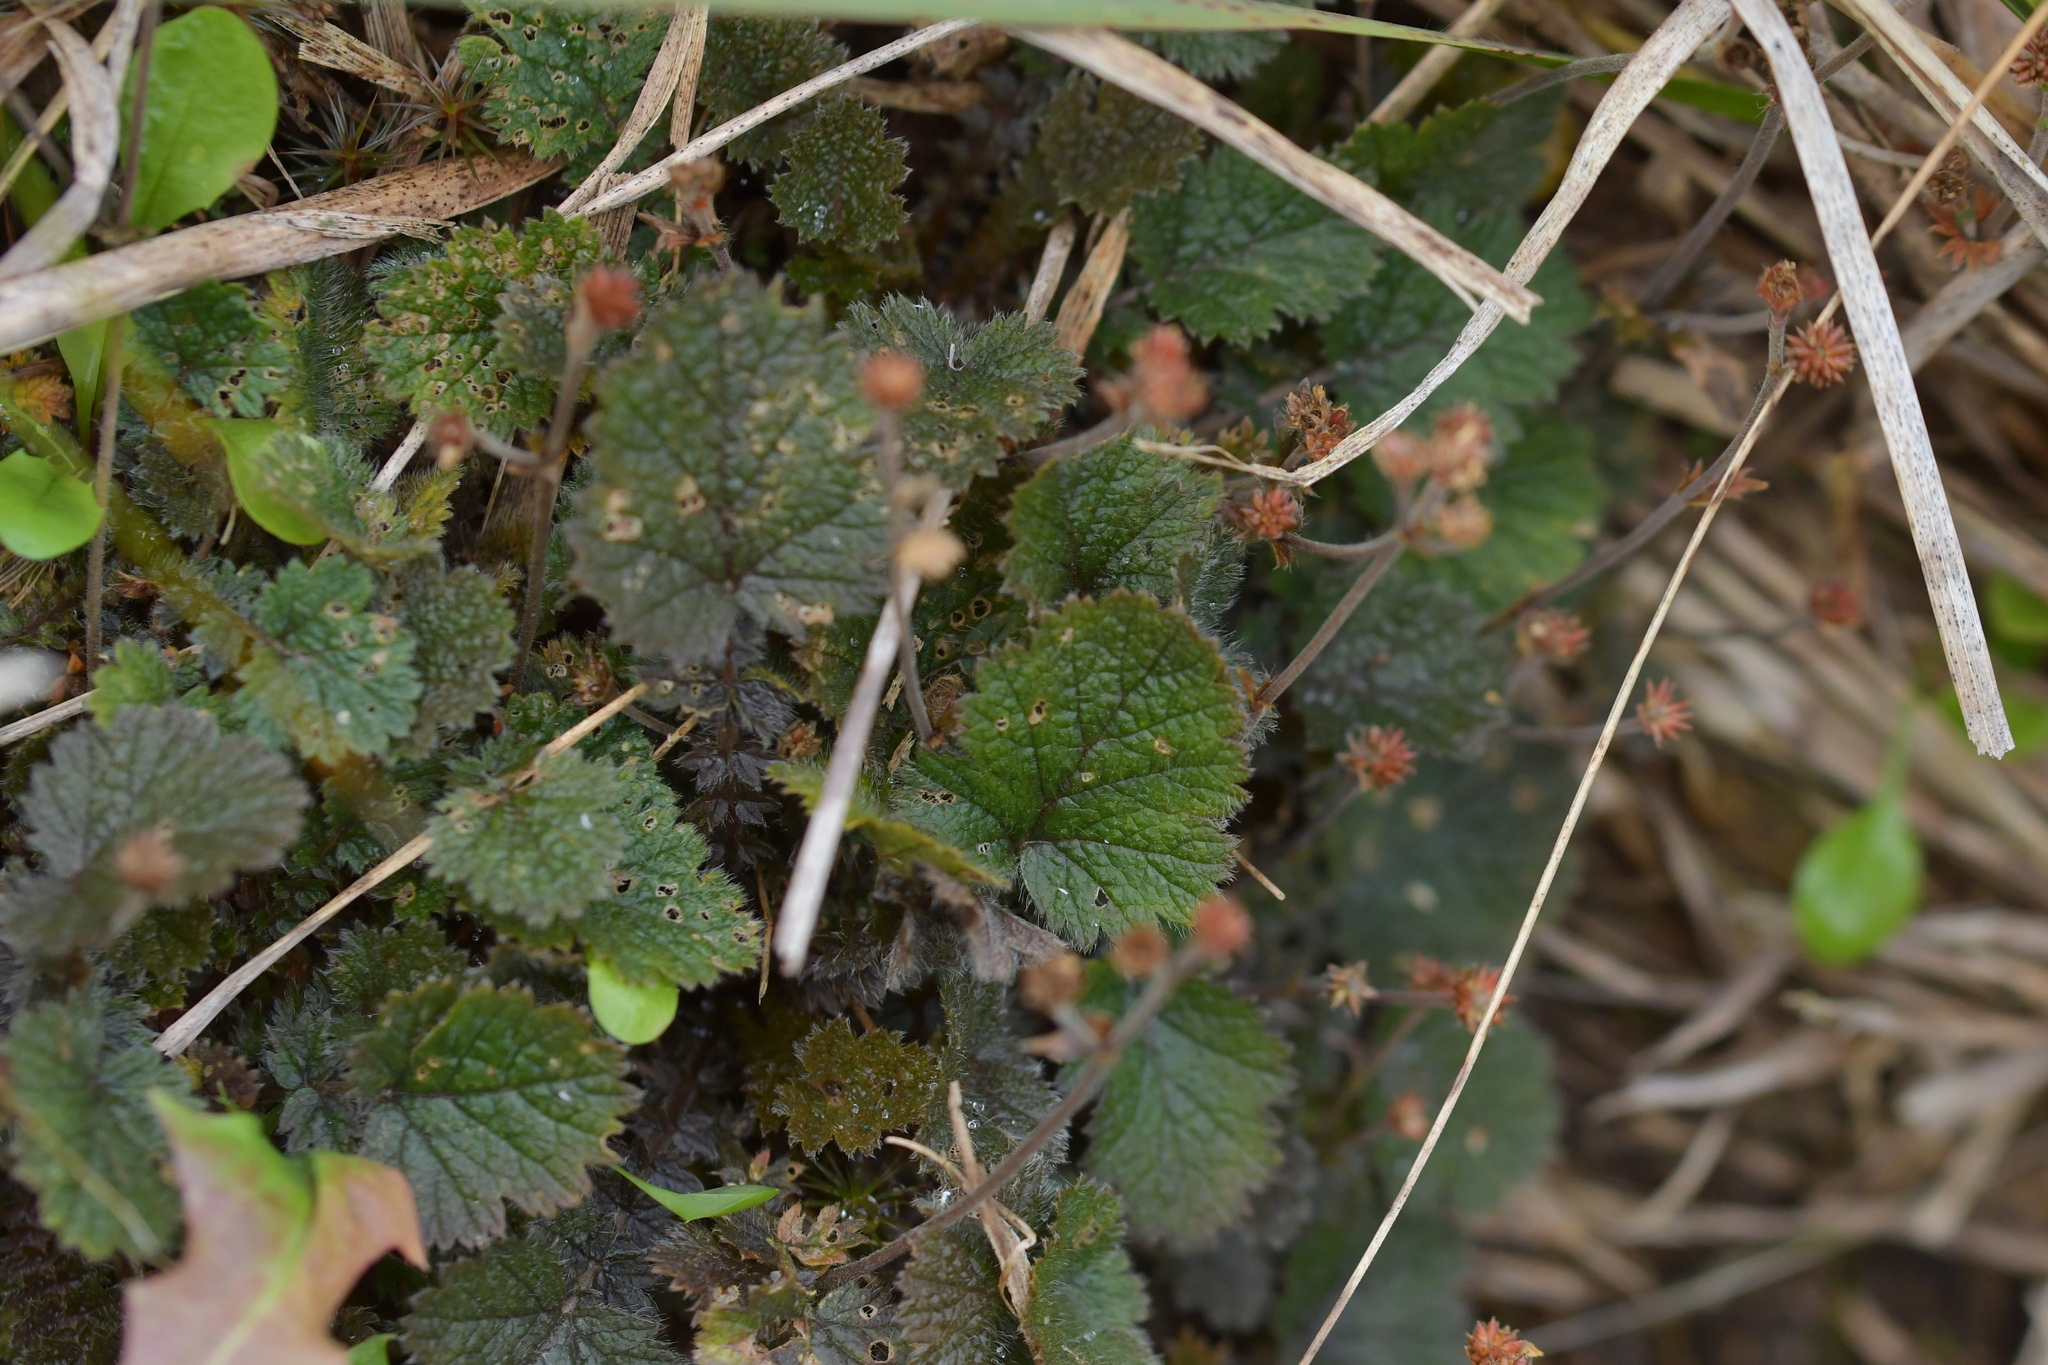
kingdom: Plantae
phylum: Tracheophyta
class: Magnoliopsida
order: Rosales
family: Rosaceae
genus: Geum
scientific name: Geum leiospermum
